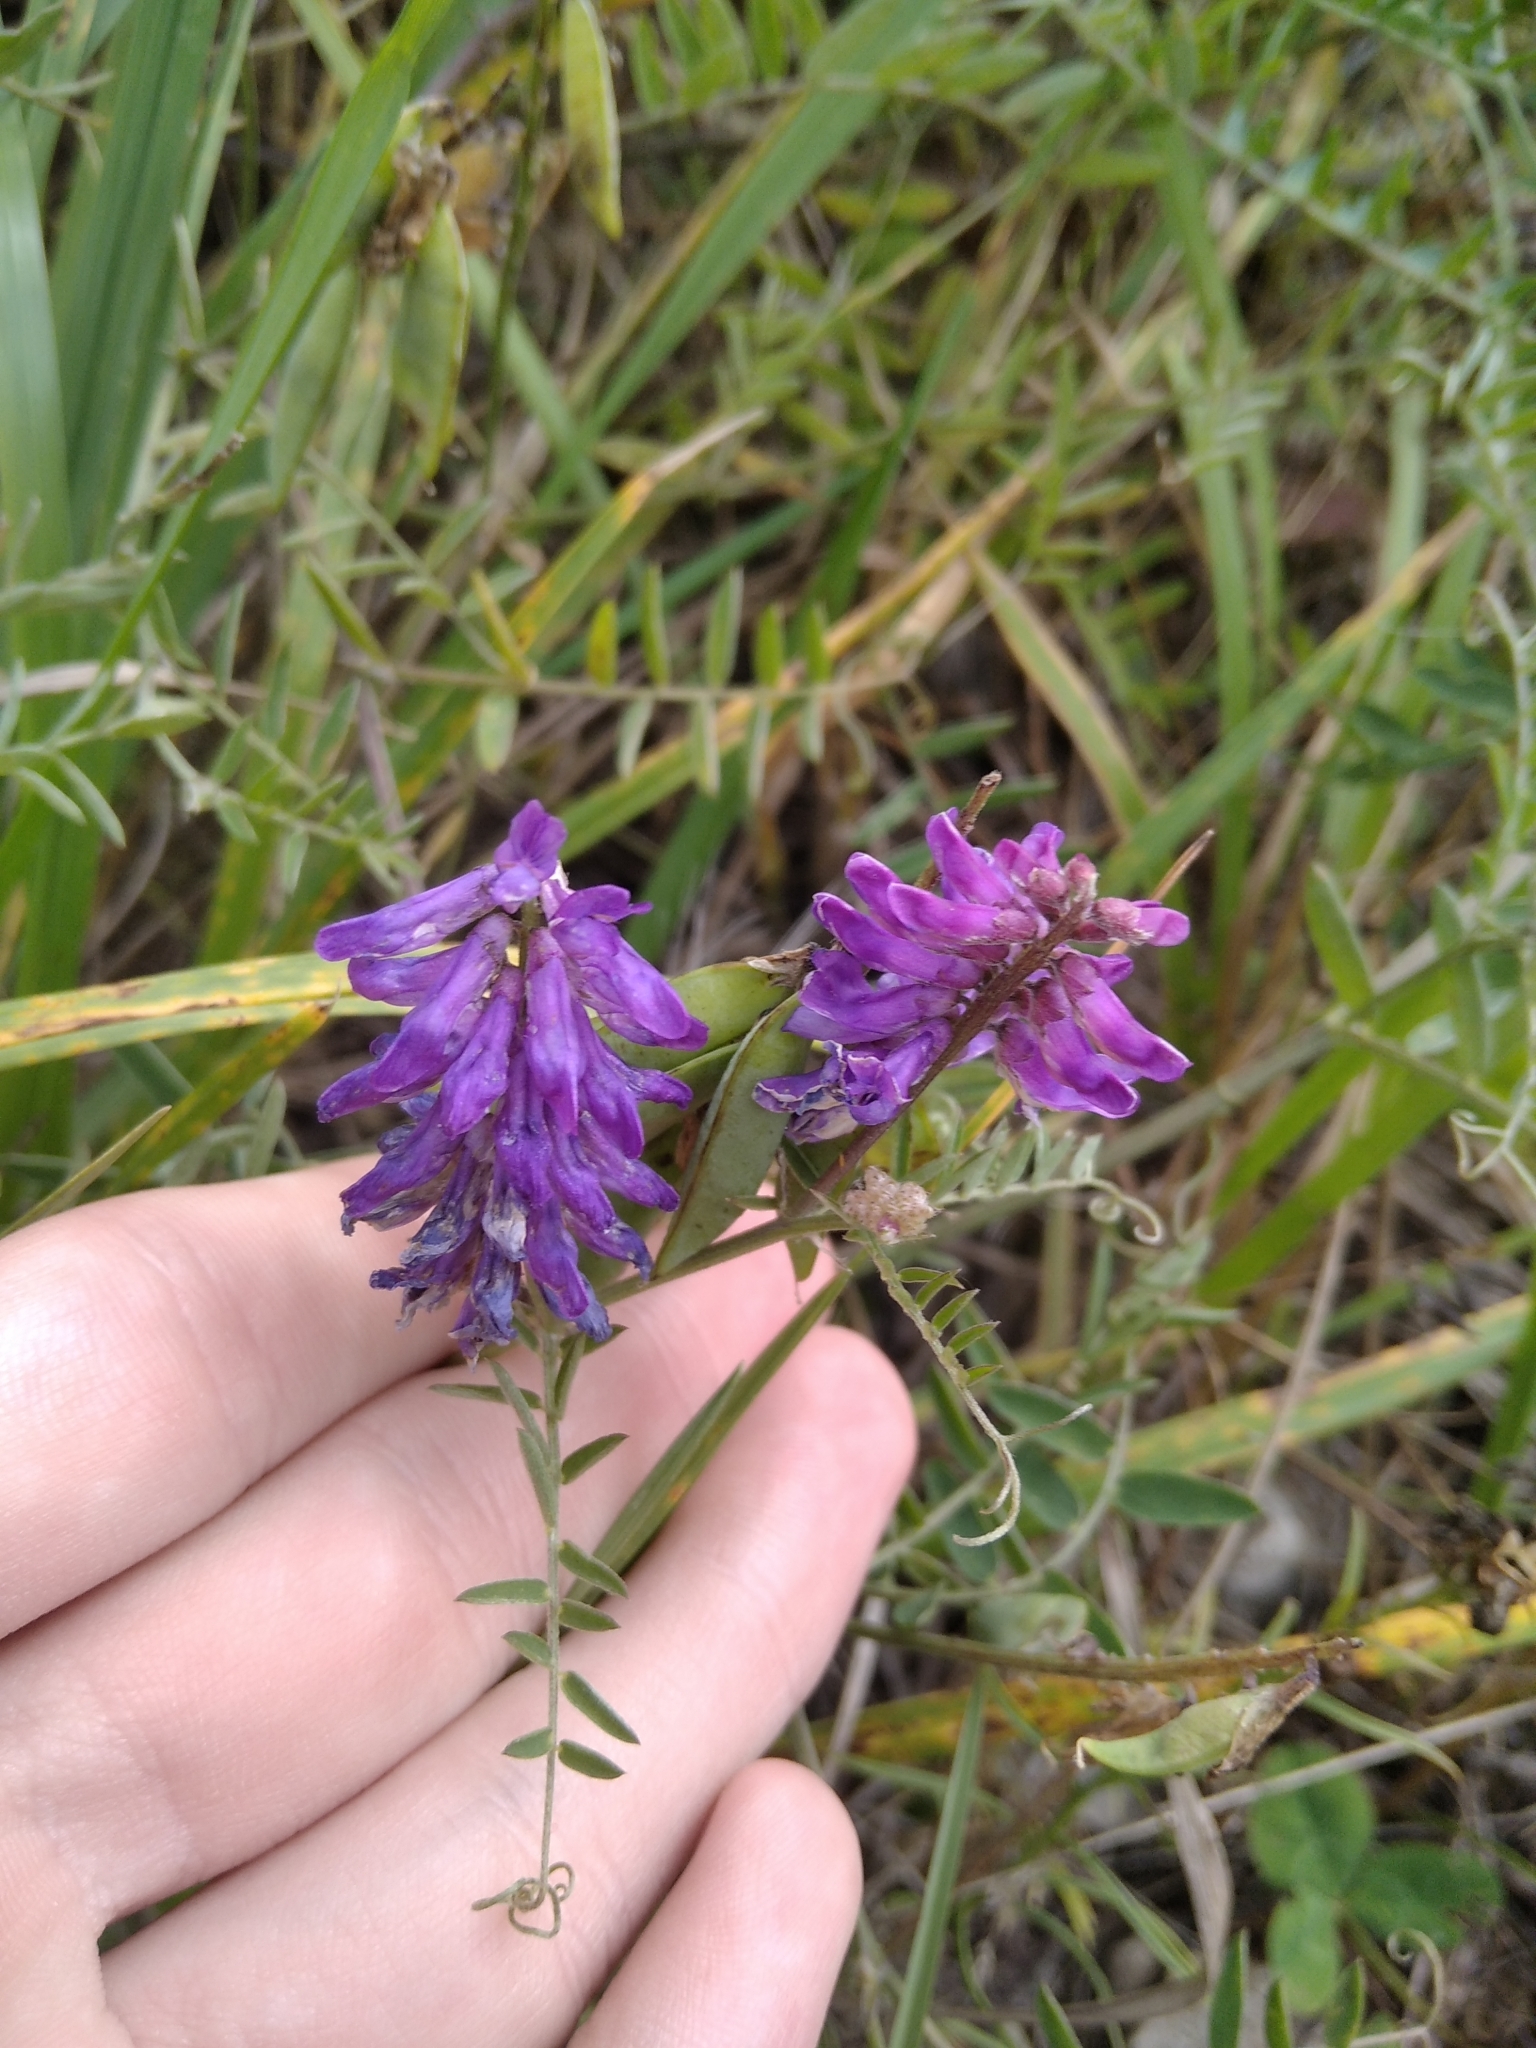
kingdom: Plantae
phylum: Tracheophyta
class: Magnoliopsida
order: Fabales
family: Fabaceae
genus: Vicia
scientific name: Vicia cracca
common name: Bird vetch
